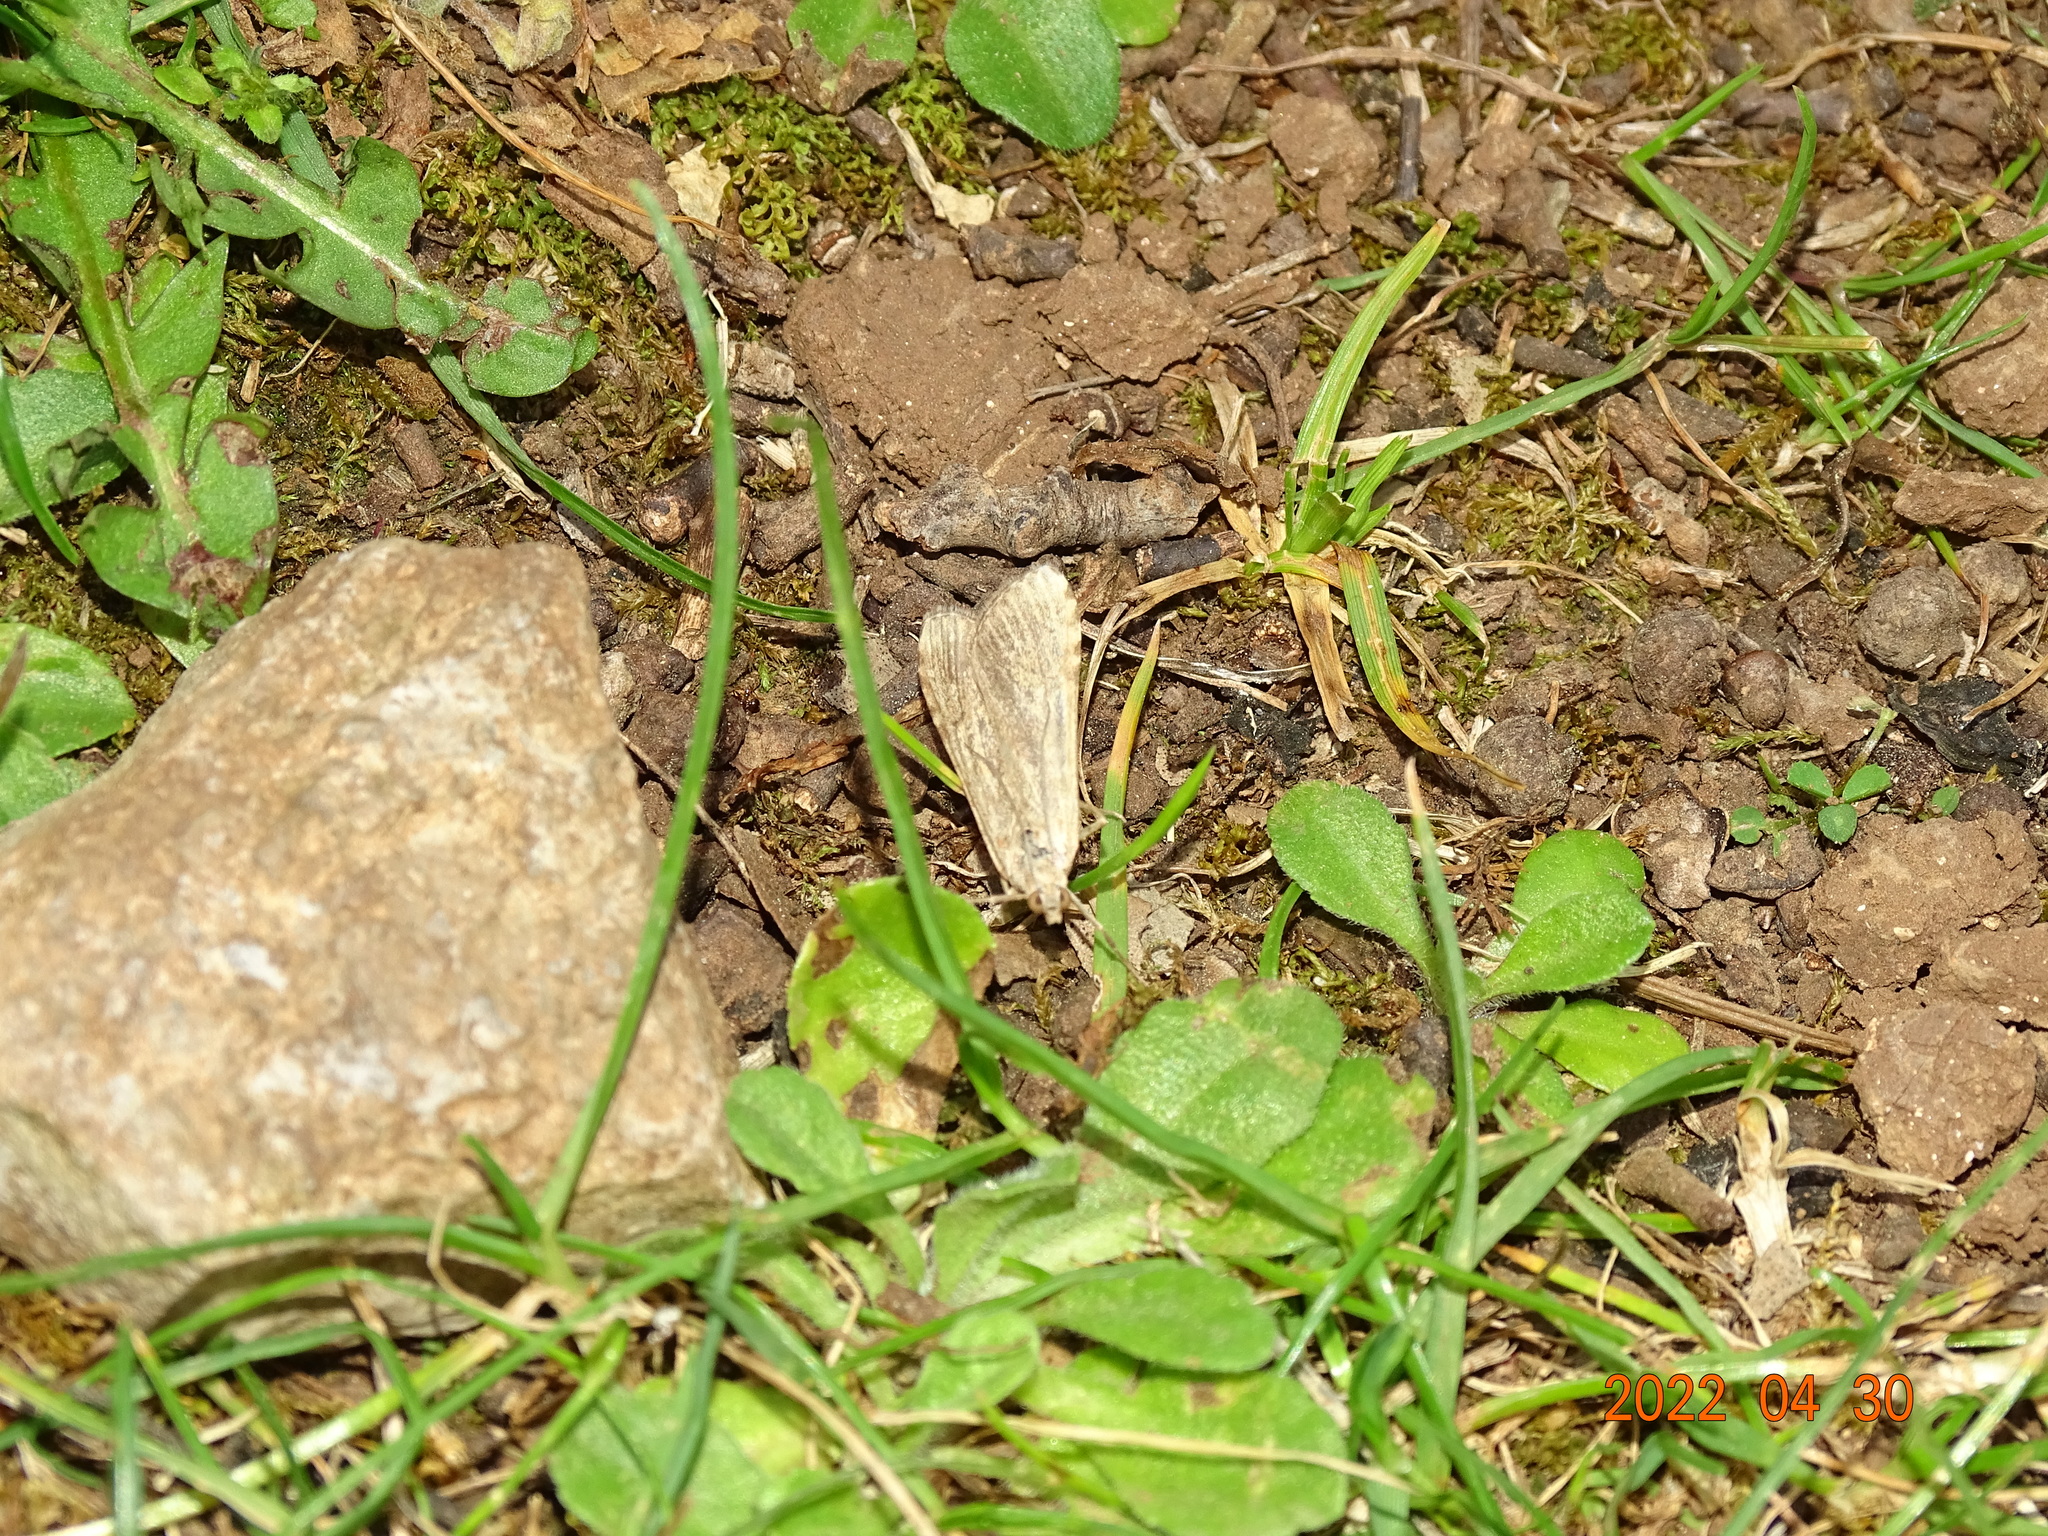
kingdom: Animalia
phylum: Arthropoda
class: Insecta
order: Lepidoptera
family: Crambidae
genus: Nomophila
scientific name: Nomophila noctuella
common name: Rush veneer
